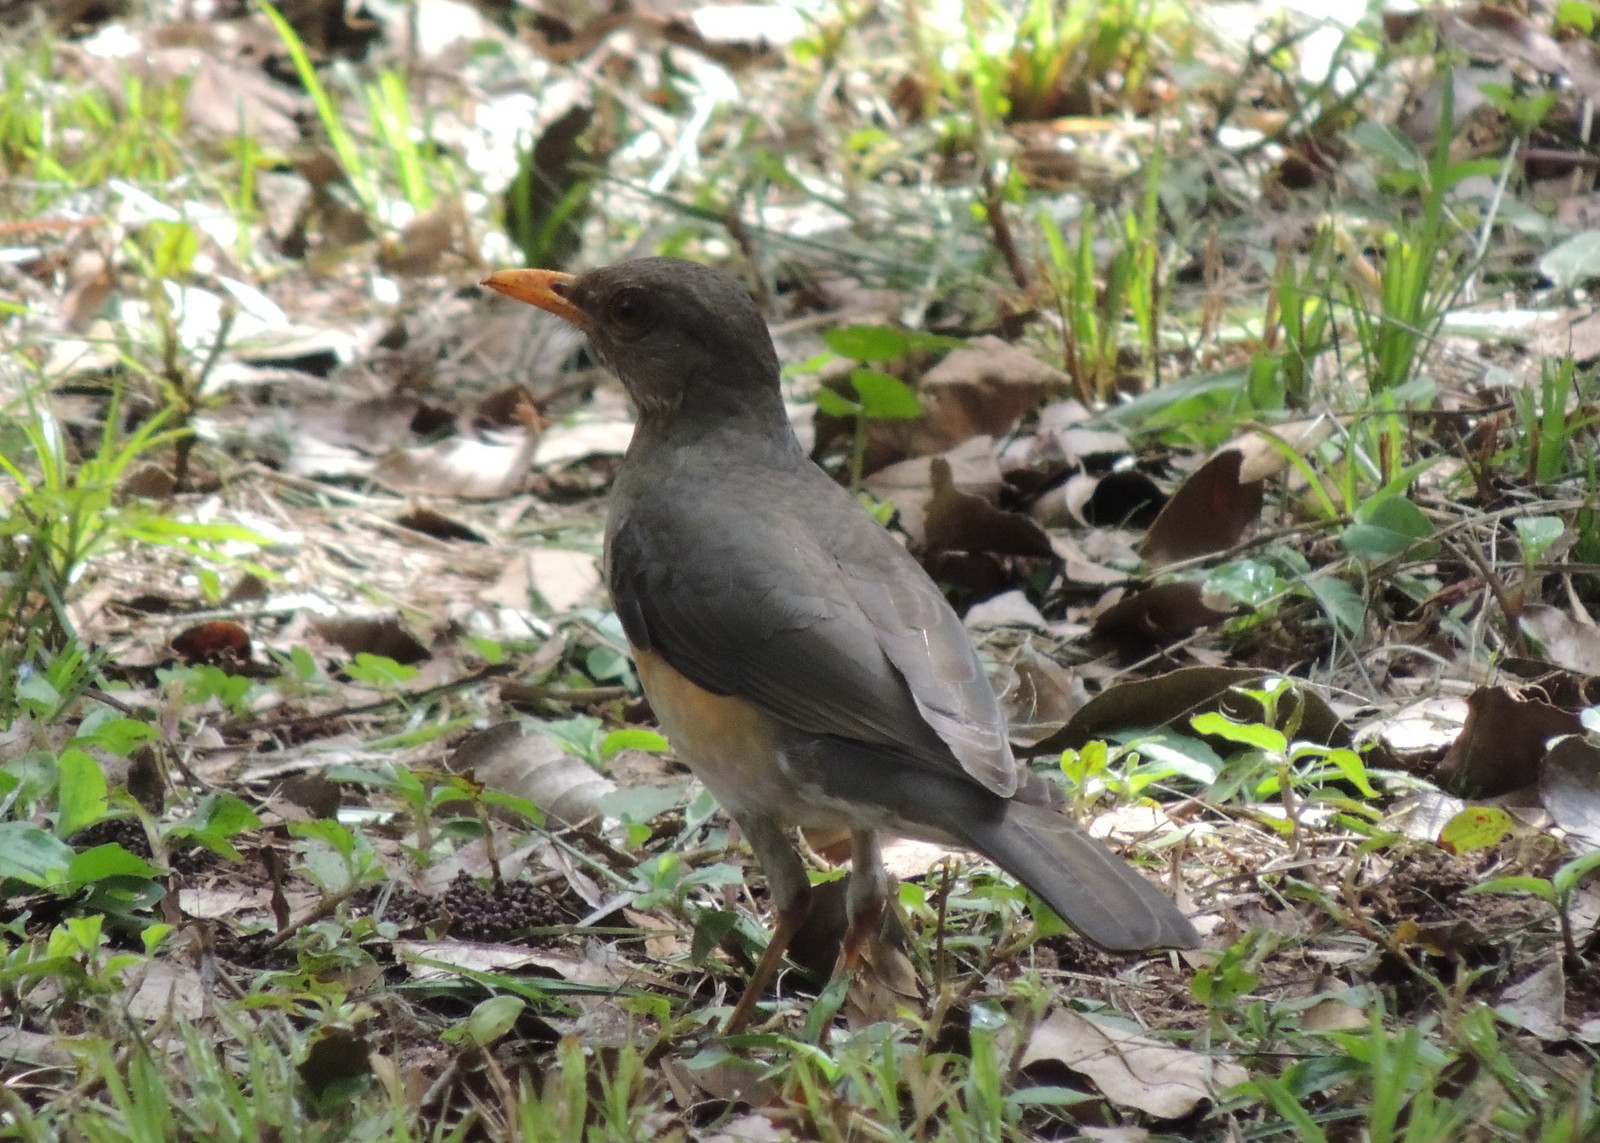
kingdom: Animalia
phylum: Chordata
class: Aves
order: Passeriformes
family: Turdidae
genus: Turdus
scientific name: Turdus pelios
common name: African thrush
